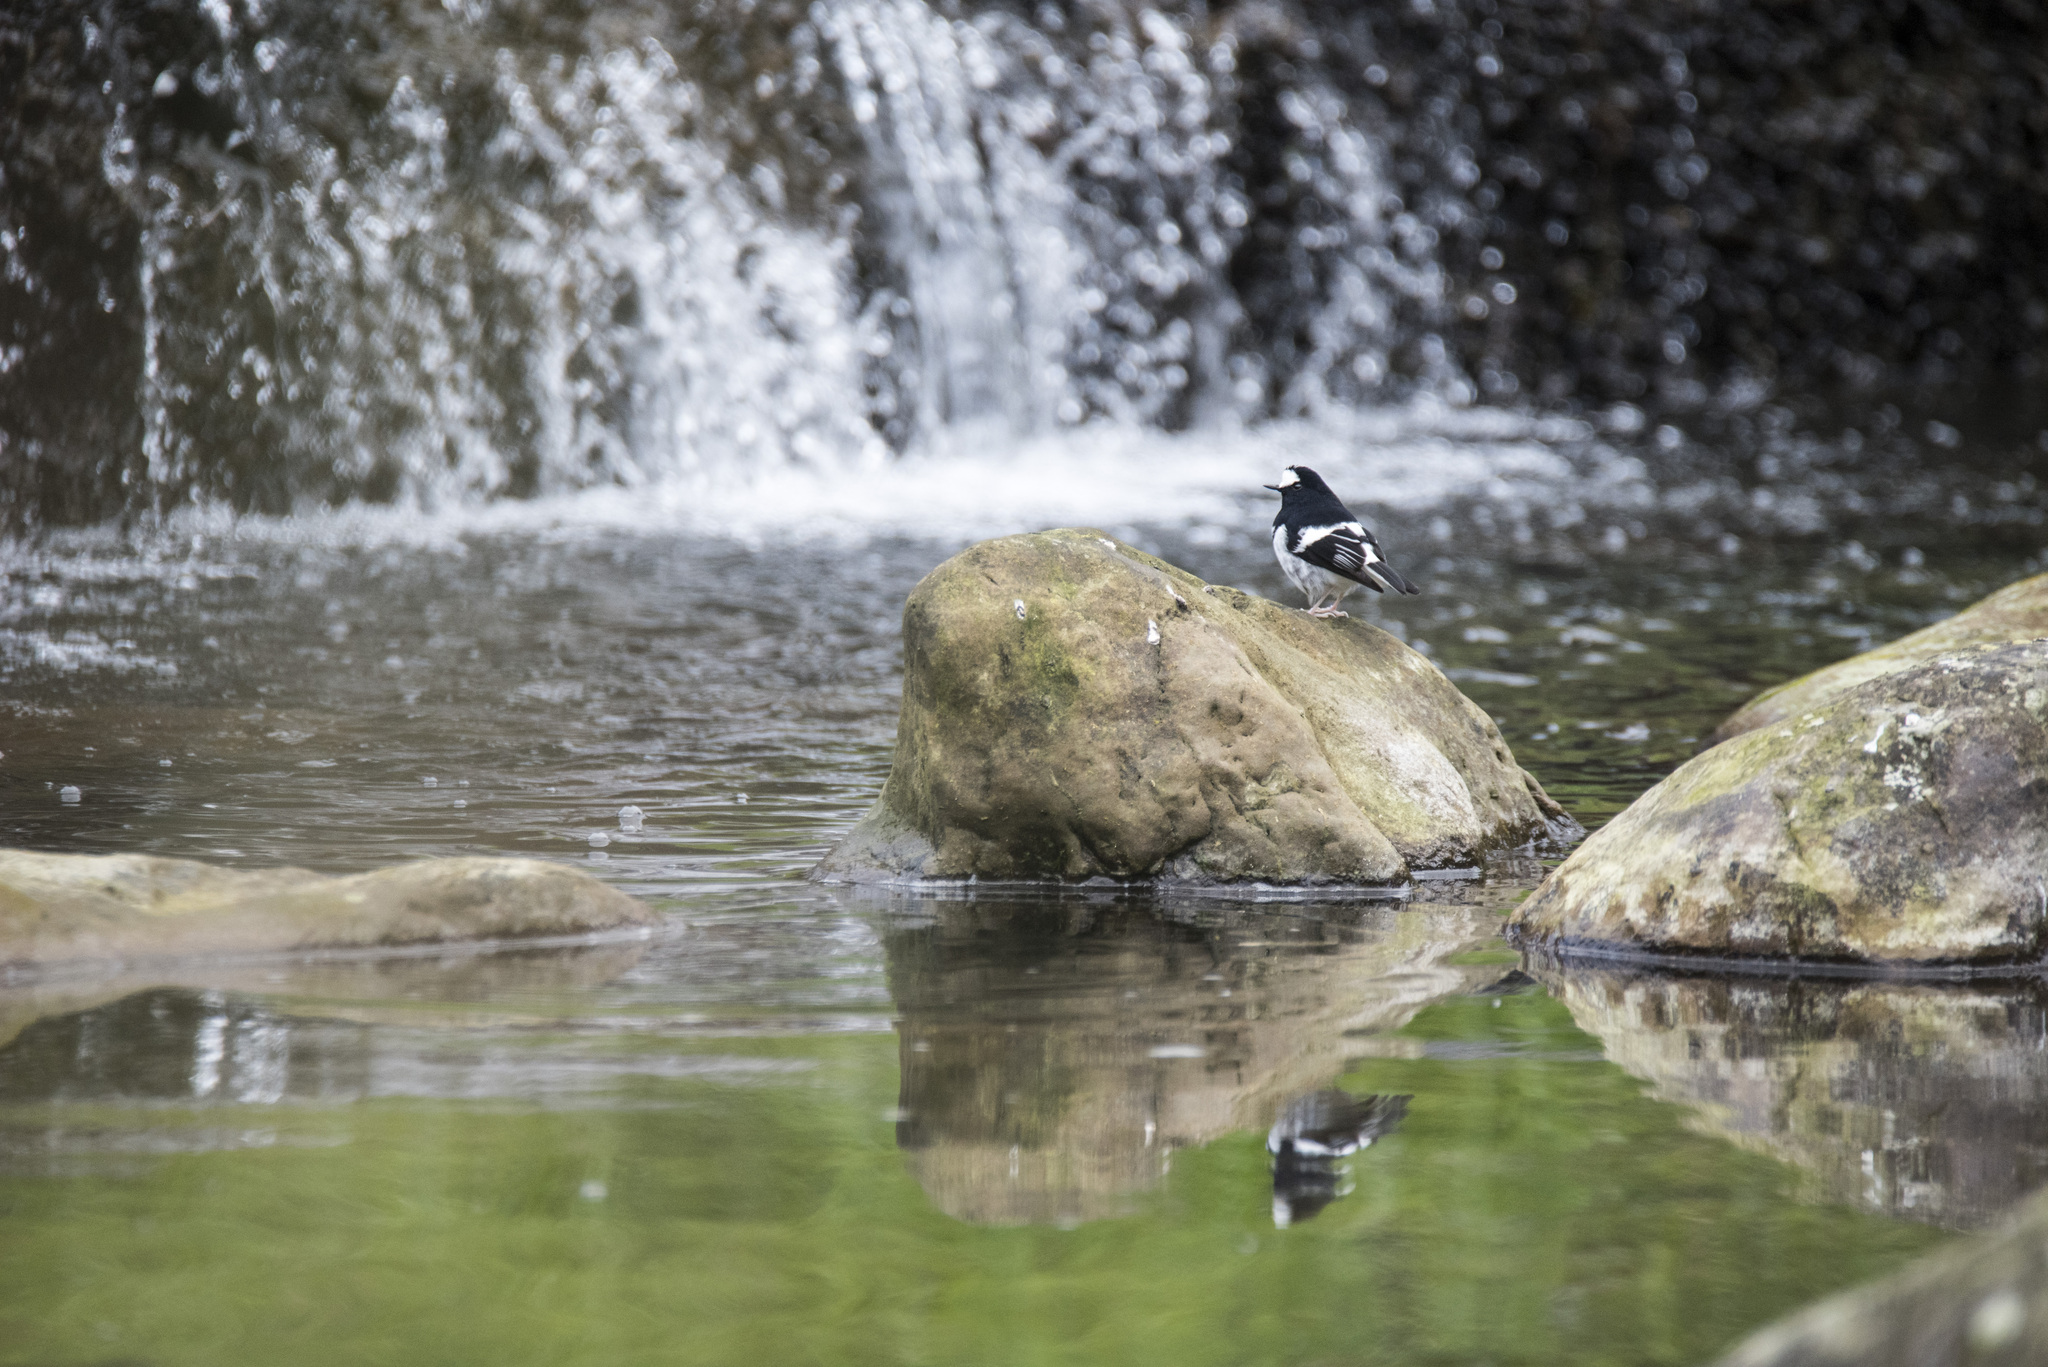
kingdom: Animalia
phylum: Chordata
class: Aves
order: Passeriformes
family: Muscicapidae
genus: Enicurus
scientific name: Enicurus scouleri
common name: Little forktail
